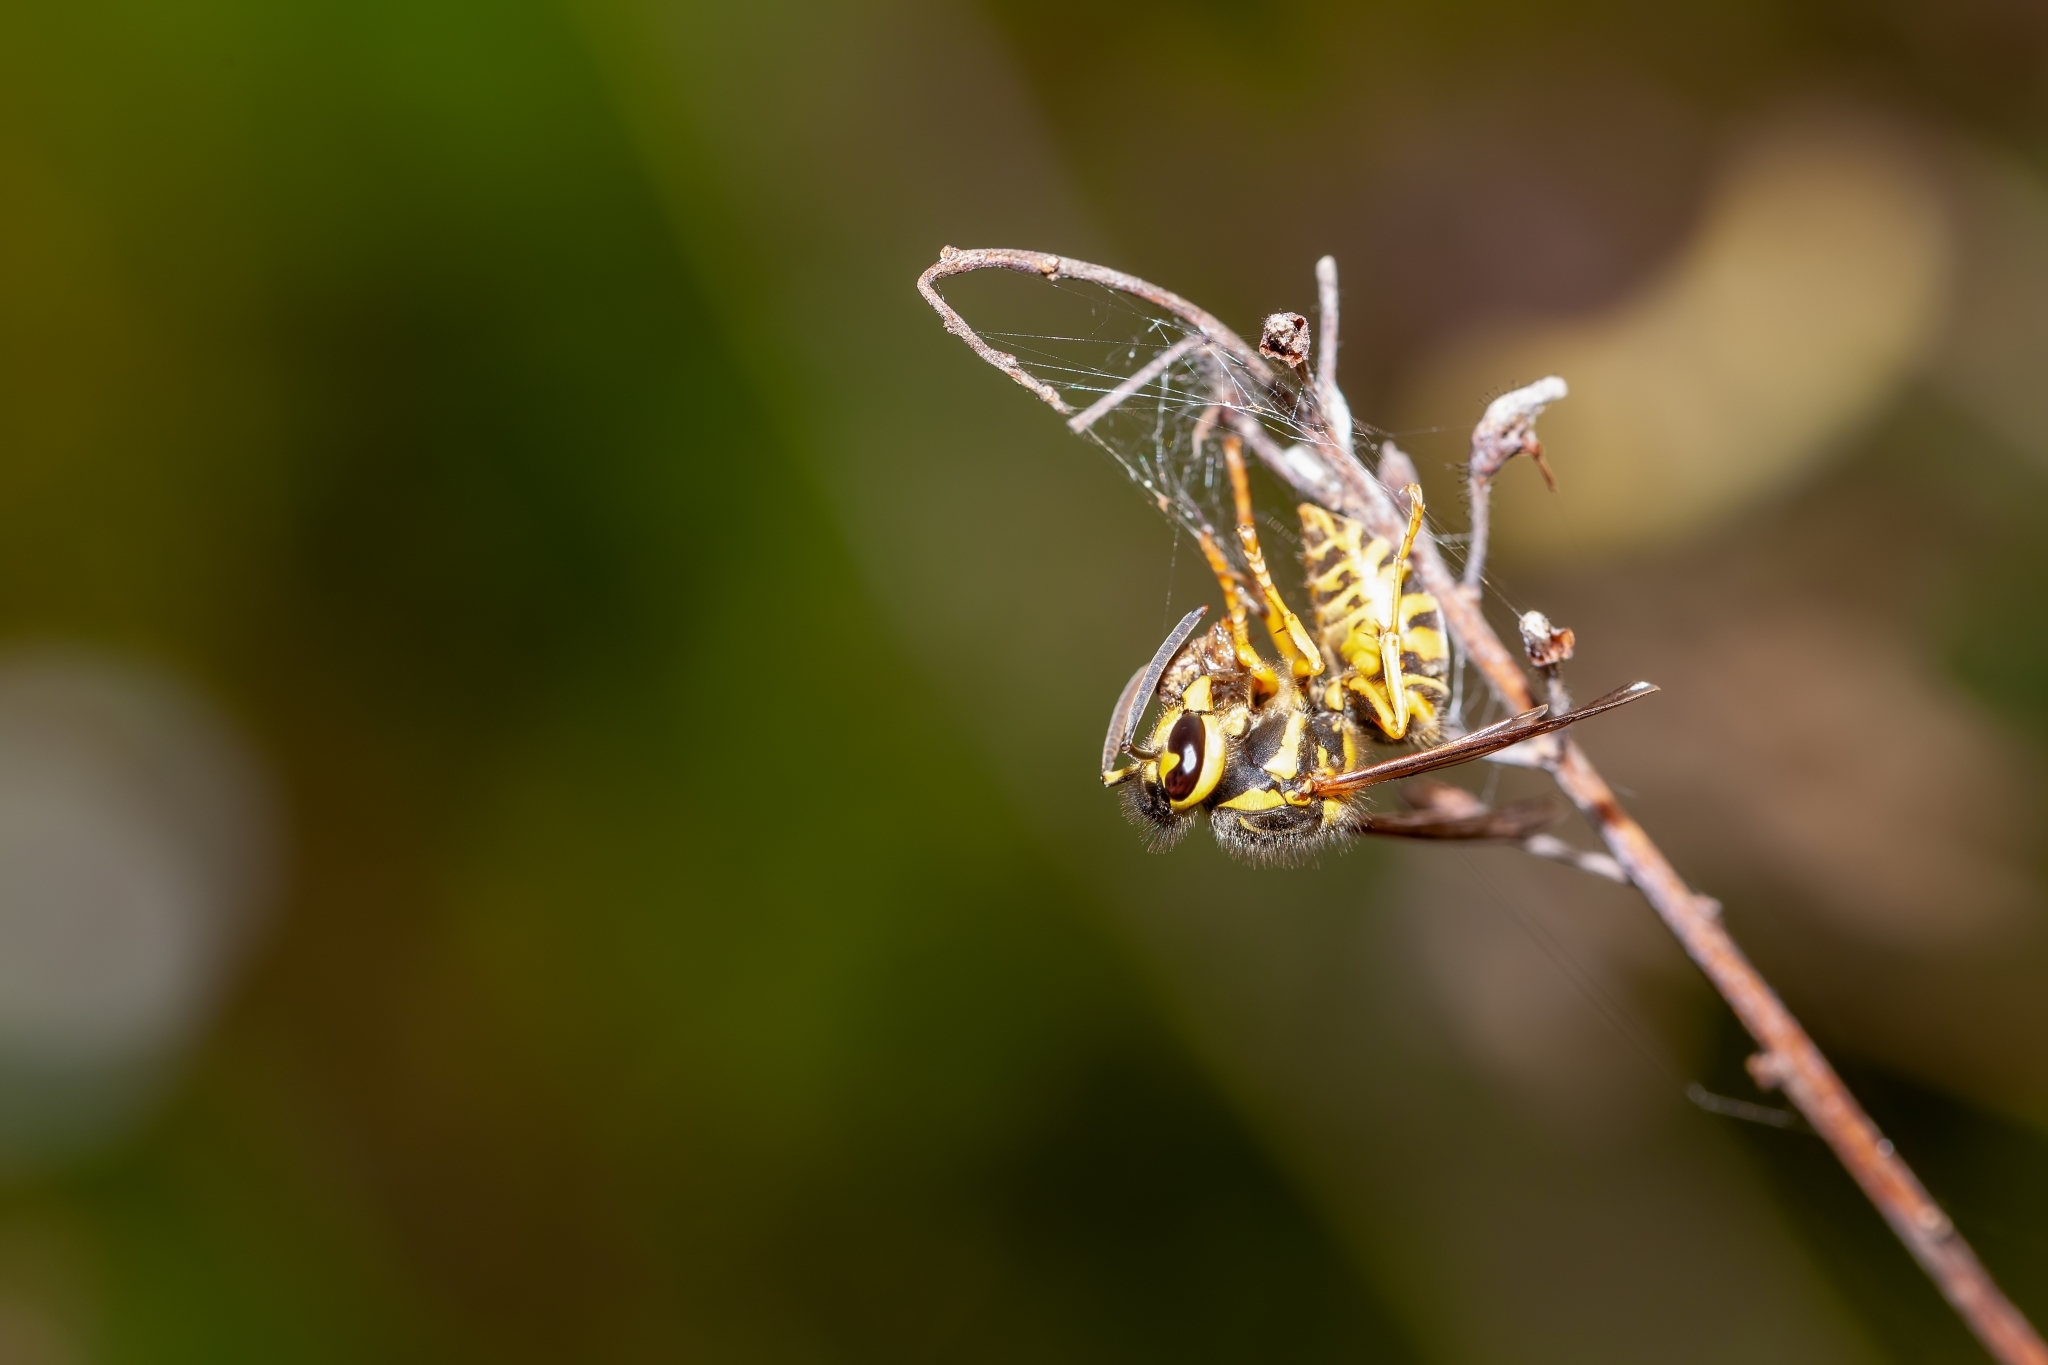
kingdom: Animalia
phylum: Arthropoda
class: Insecta
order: Hymenoptera
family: Vespidae
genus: Vespula
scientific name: Vespula squamosa
